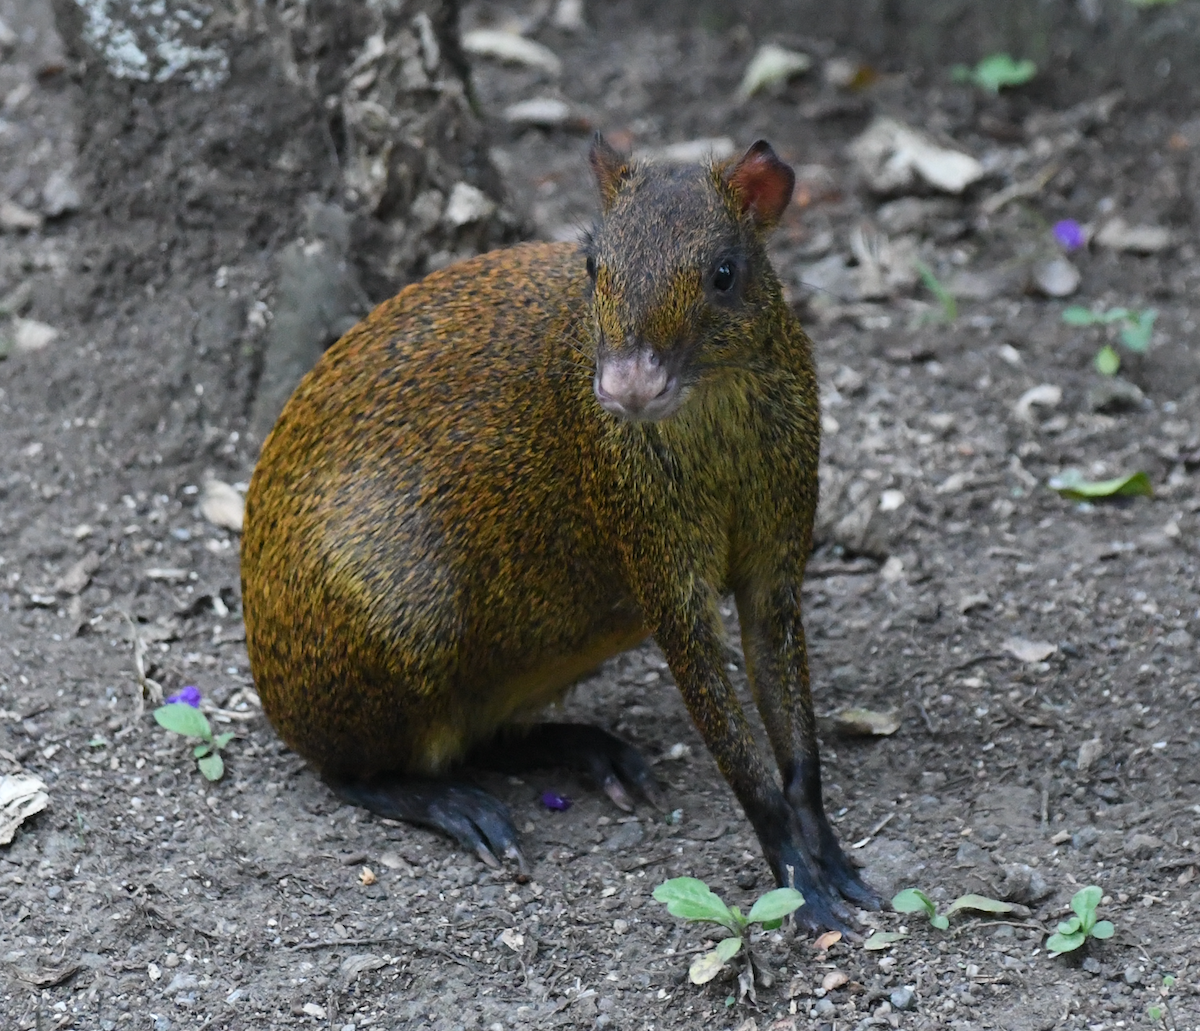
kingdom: Animalia
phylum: Chordata
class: Mammalia
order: Rodentia
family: Dasyproctidae
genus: Dasyprocta
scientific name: Dasyprocta punctata
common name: Central american agouti
